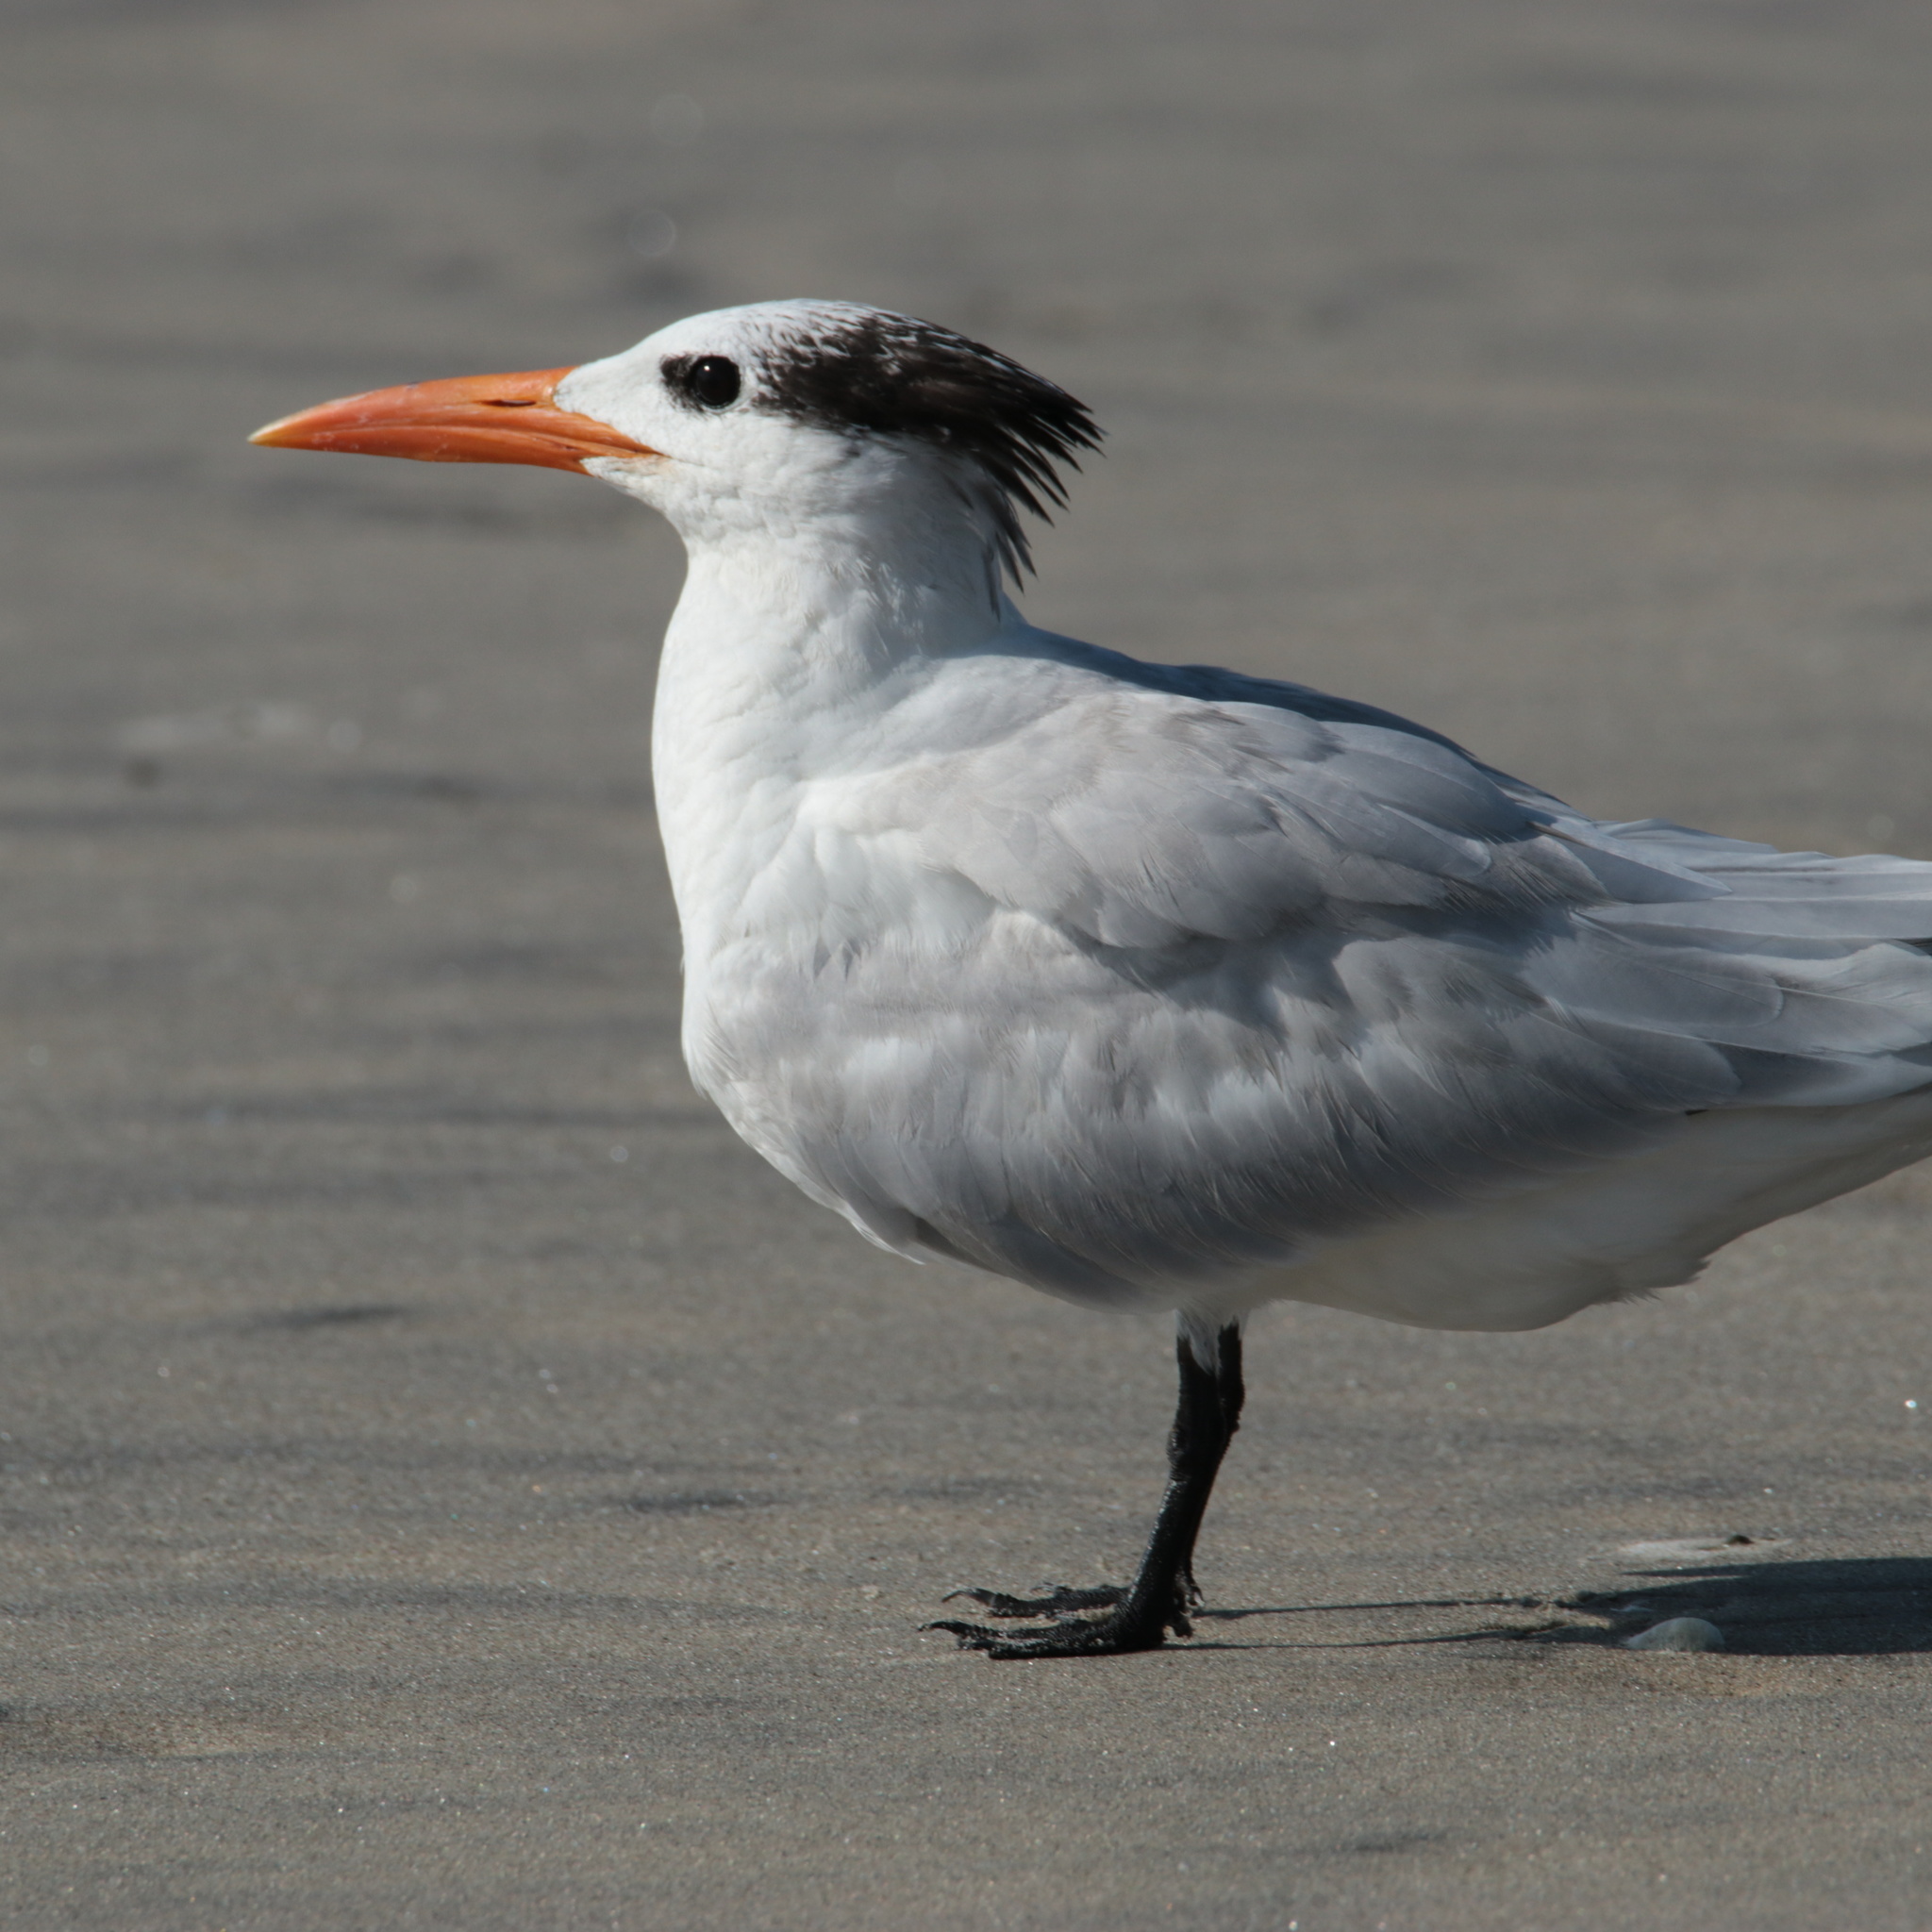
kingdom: Animalia
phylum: Chordata
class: Aves
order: Charadriiformes
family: Laridae
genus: Thalasseus
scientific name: Thalasseus maximus
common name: Royal tern
